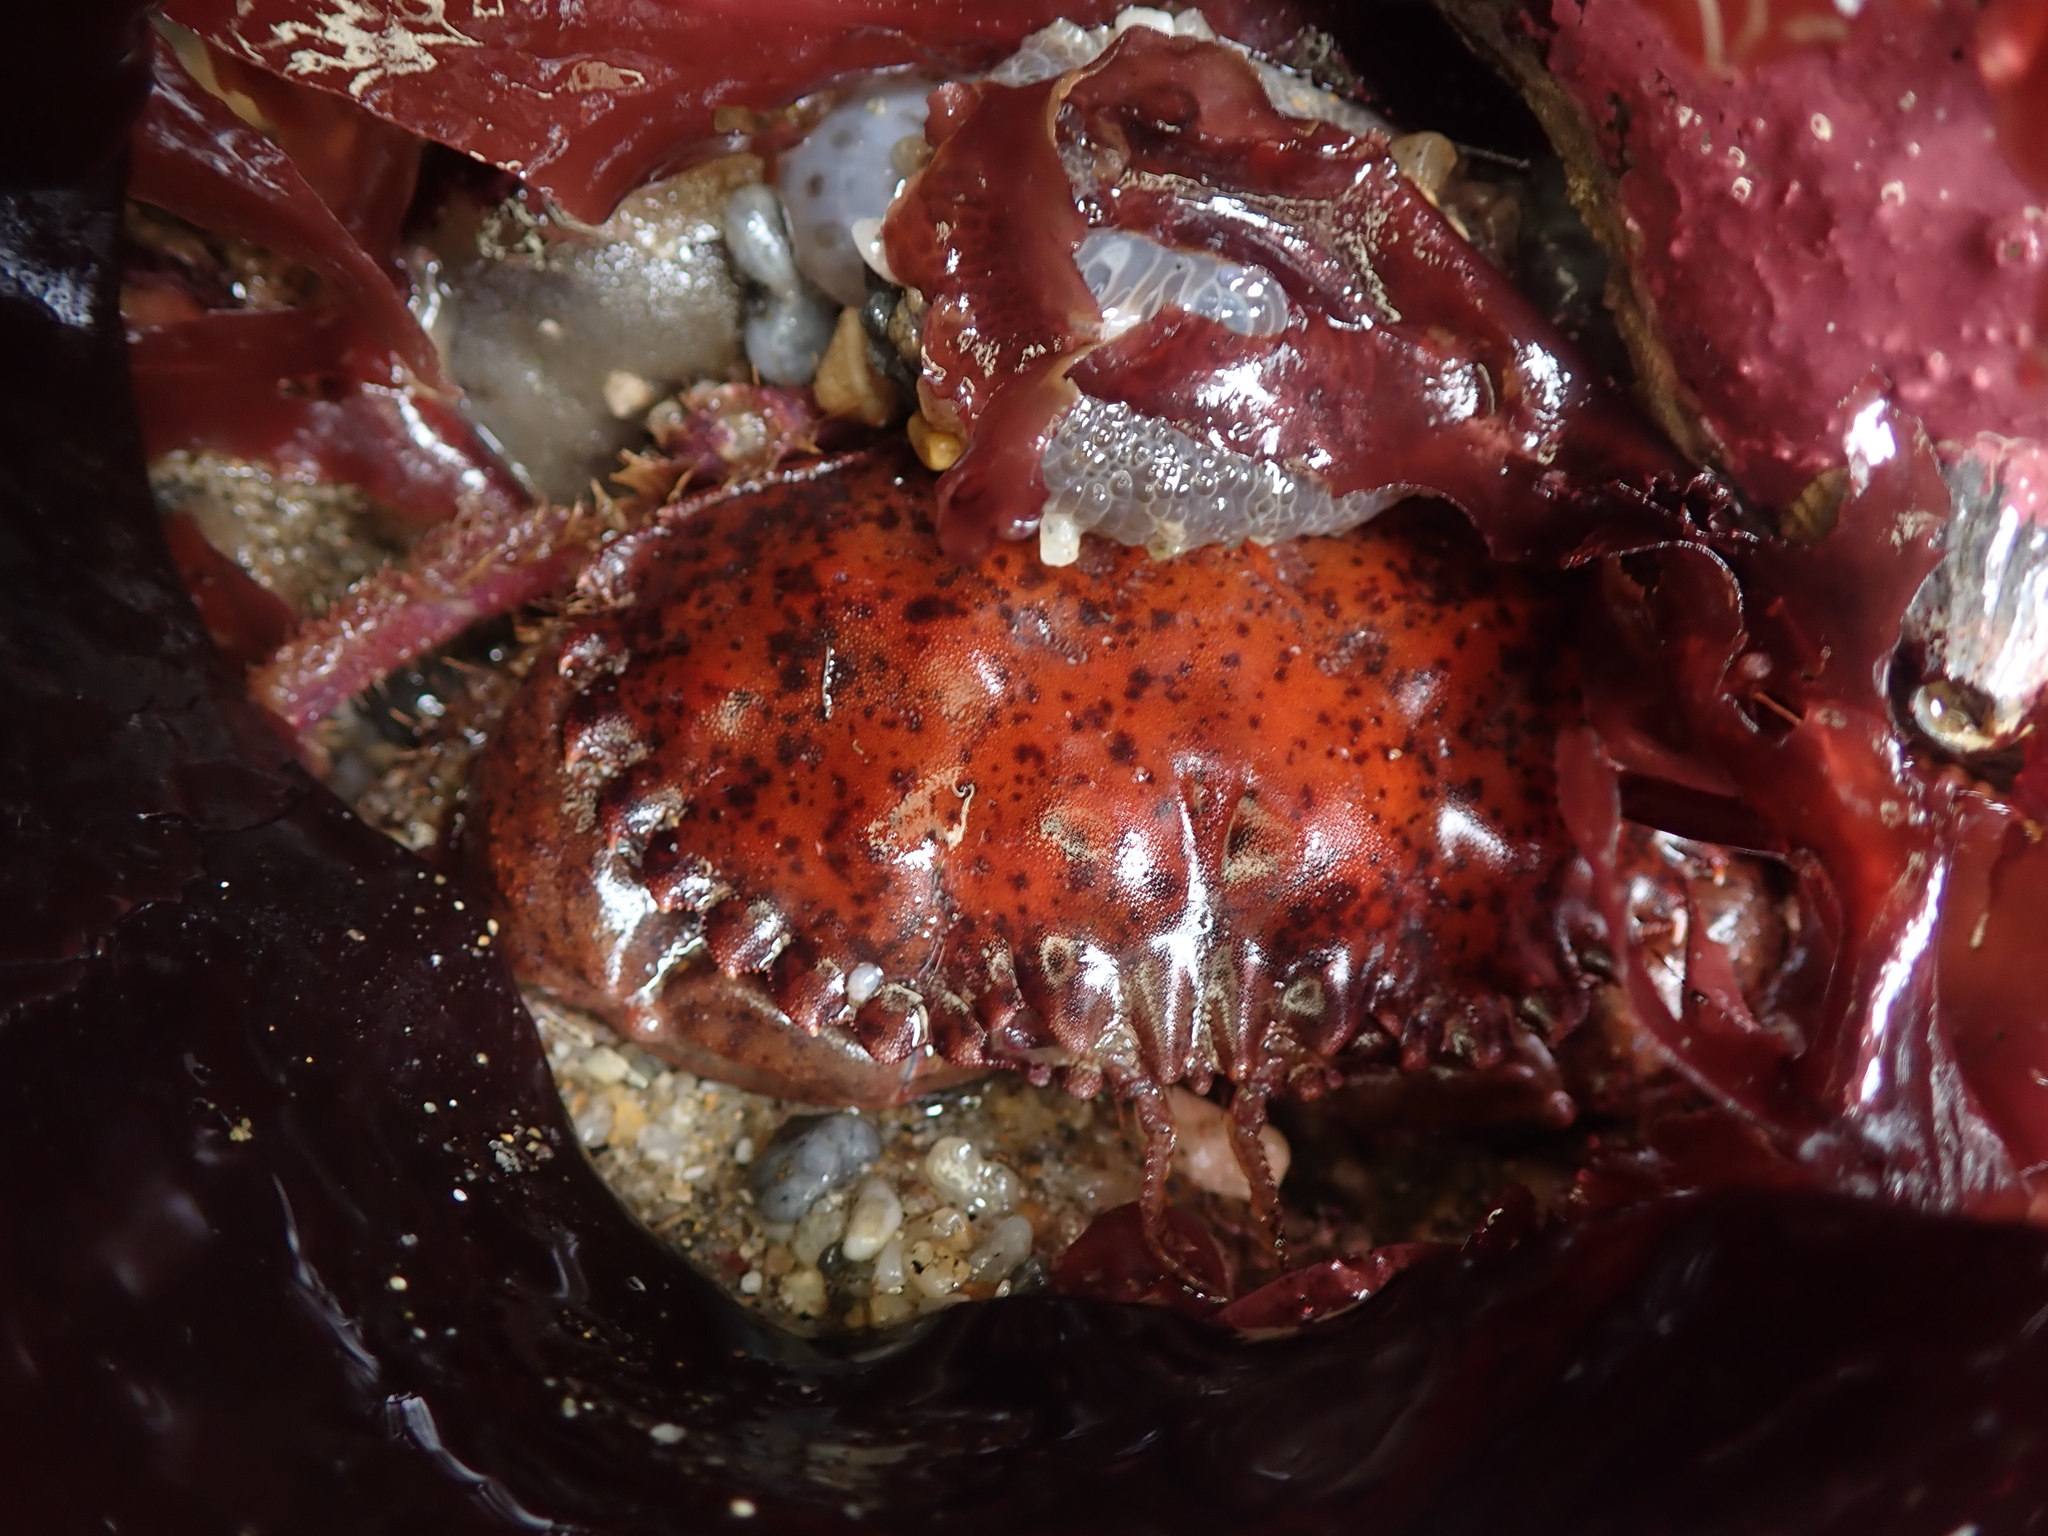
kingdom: Animalia
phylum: Arthropoda
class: Malacostraca
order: Decapoda
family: Cancridae
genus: Romaleon
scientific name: Romaleon antennarium
